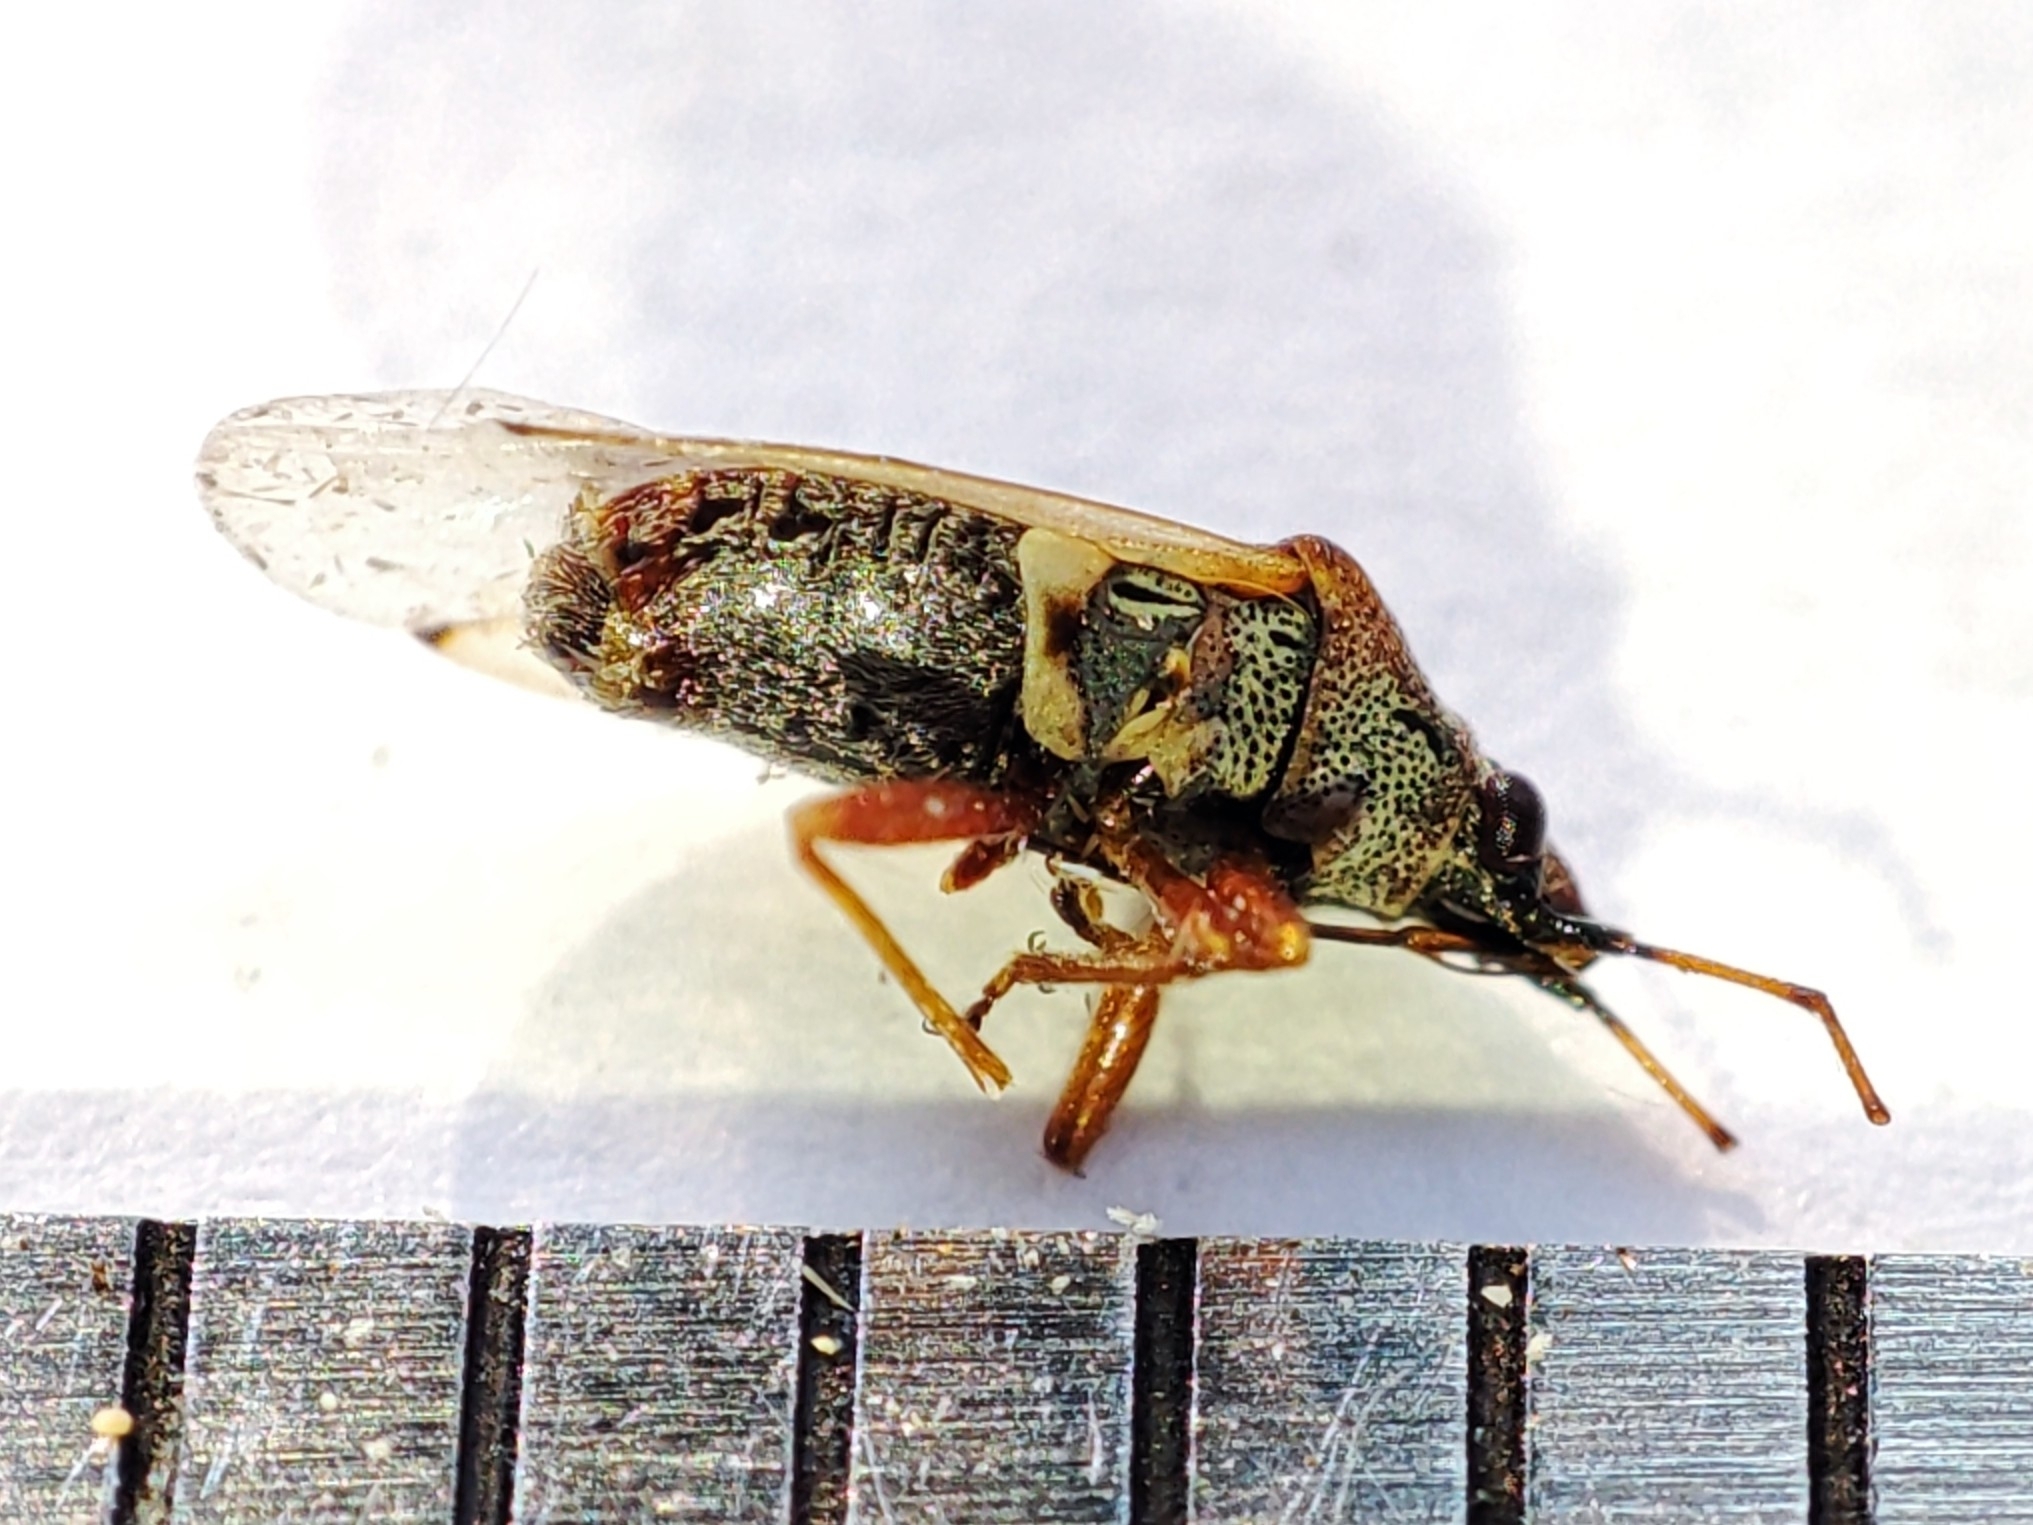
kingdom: Animalia
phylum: Arthropoda
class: Insecta
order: Hemiptera
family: Lygaeidae
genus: Kleidocerys
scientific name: Kleidocerys resedae
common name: Birch catkin bug
